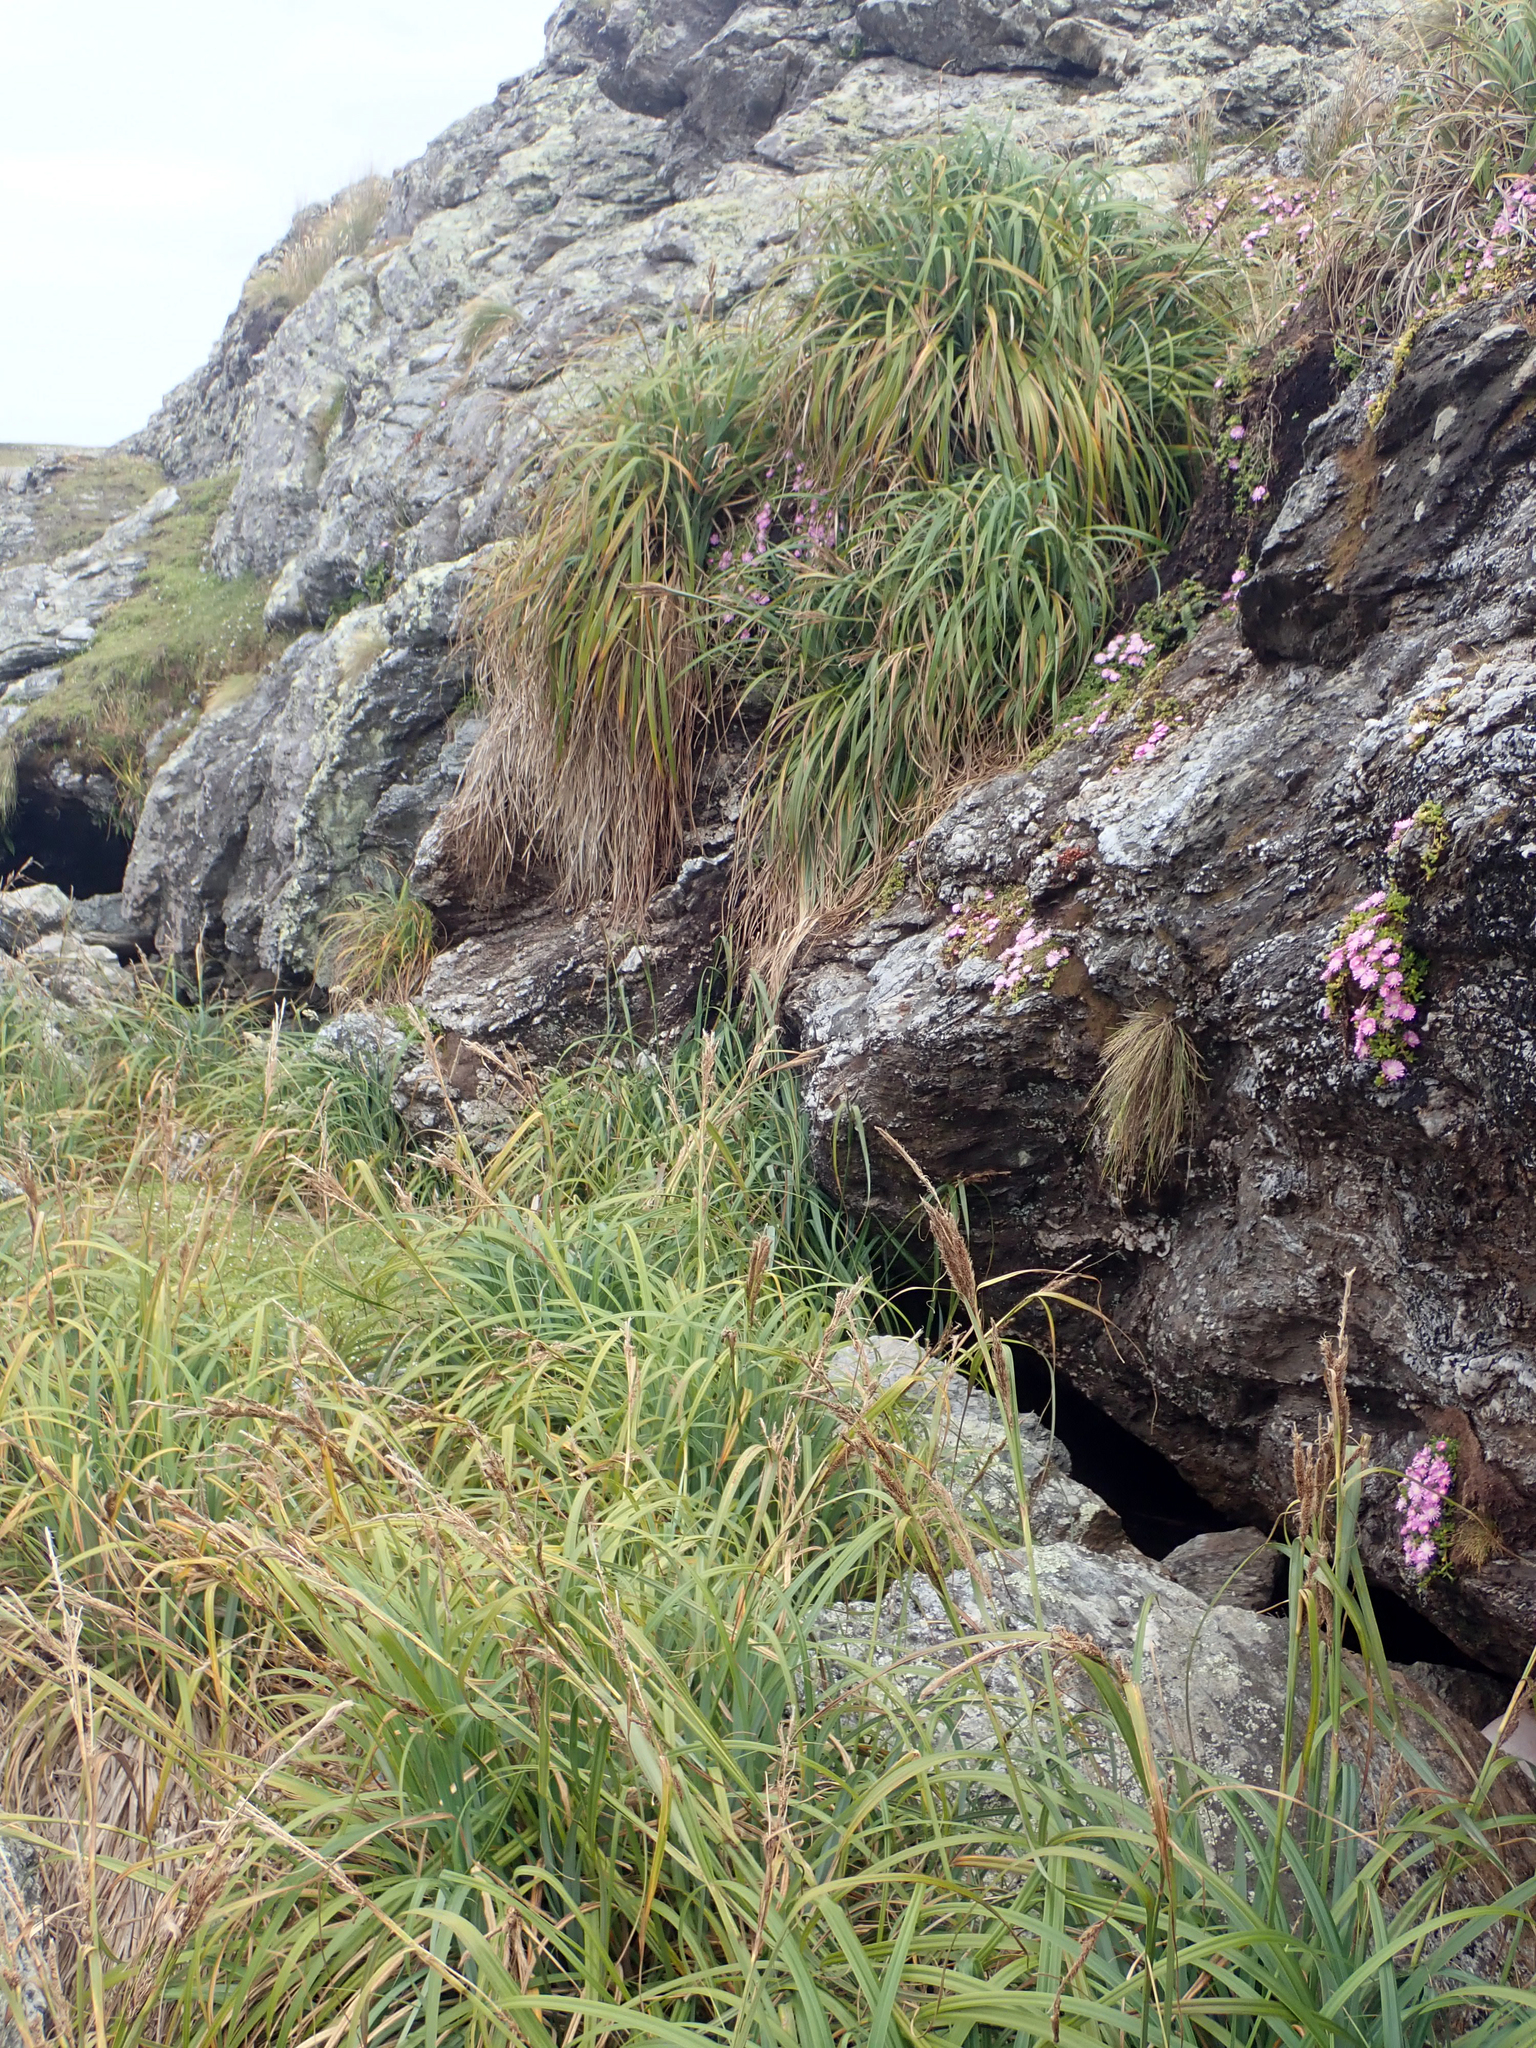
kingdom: Plantae
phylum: Tracheophyta
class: Liliopsida
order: Poales
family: Cyperaceae
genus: Carex
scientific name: Carex trifida
